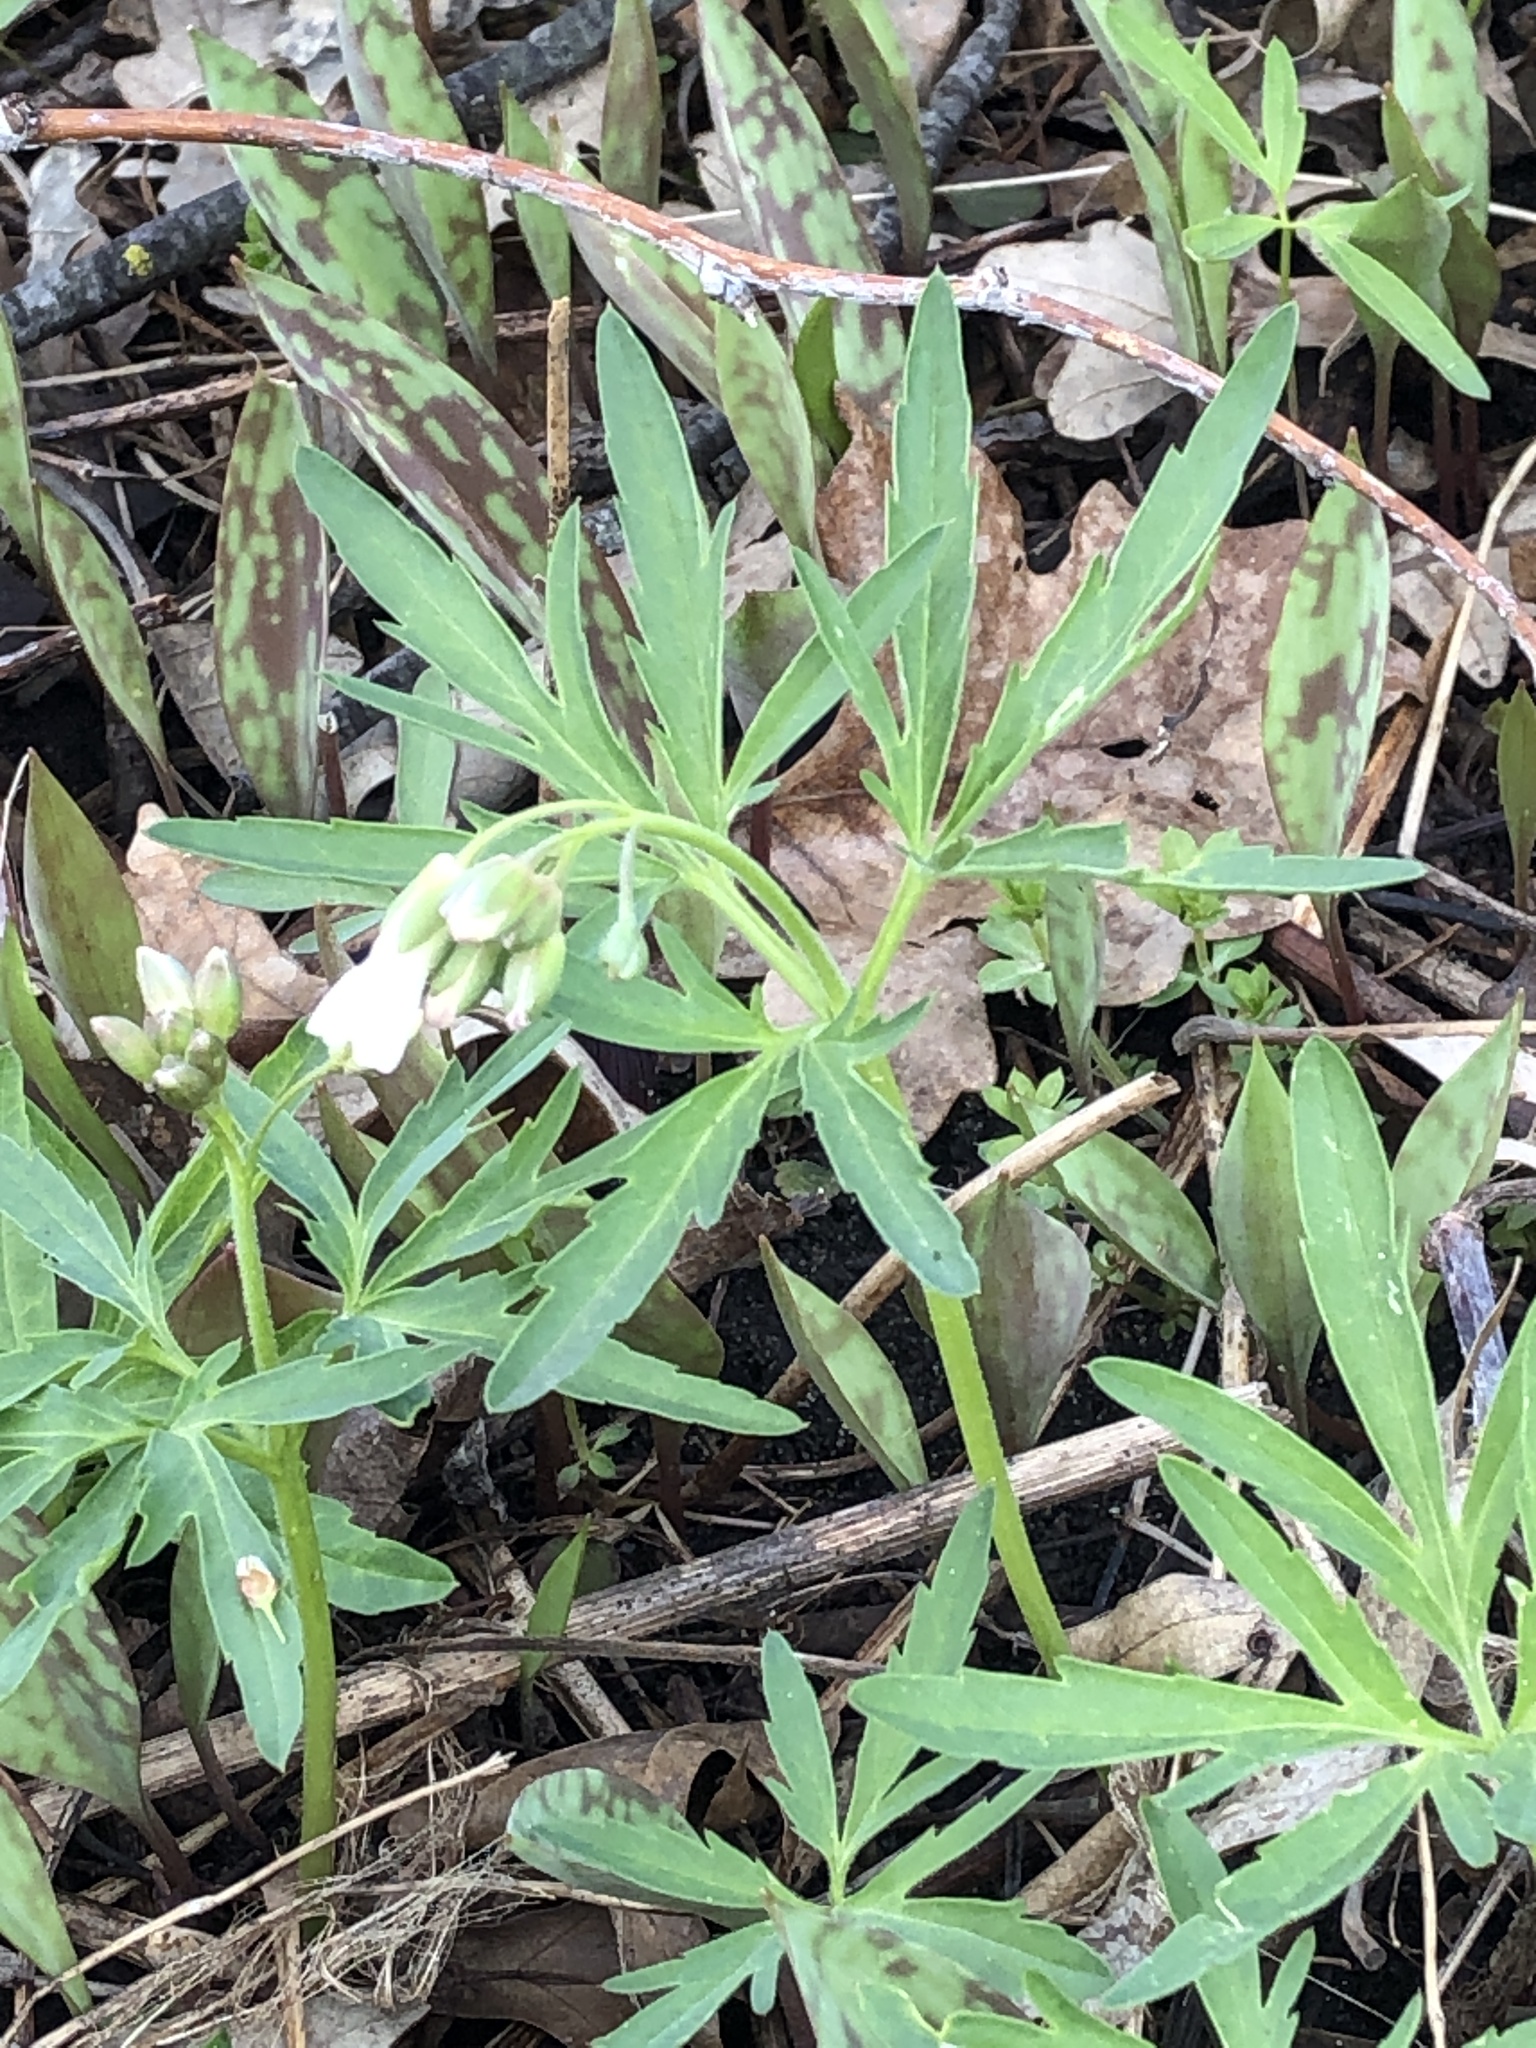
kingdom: Plantae
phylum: Tracheophyta
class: Magnoliopsida
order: Brassicales
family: Brassicaceae
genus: Cardamine
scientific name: Cardamine concatenata
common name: Cut-leaf toothcup
